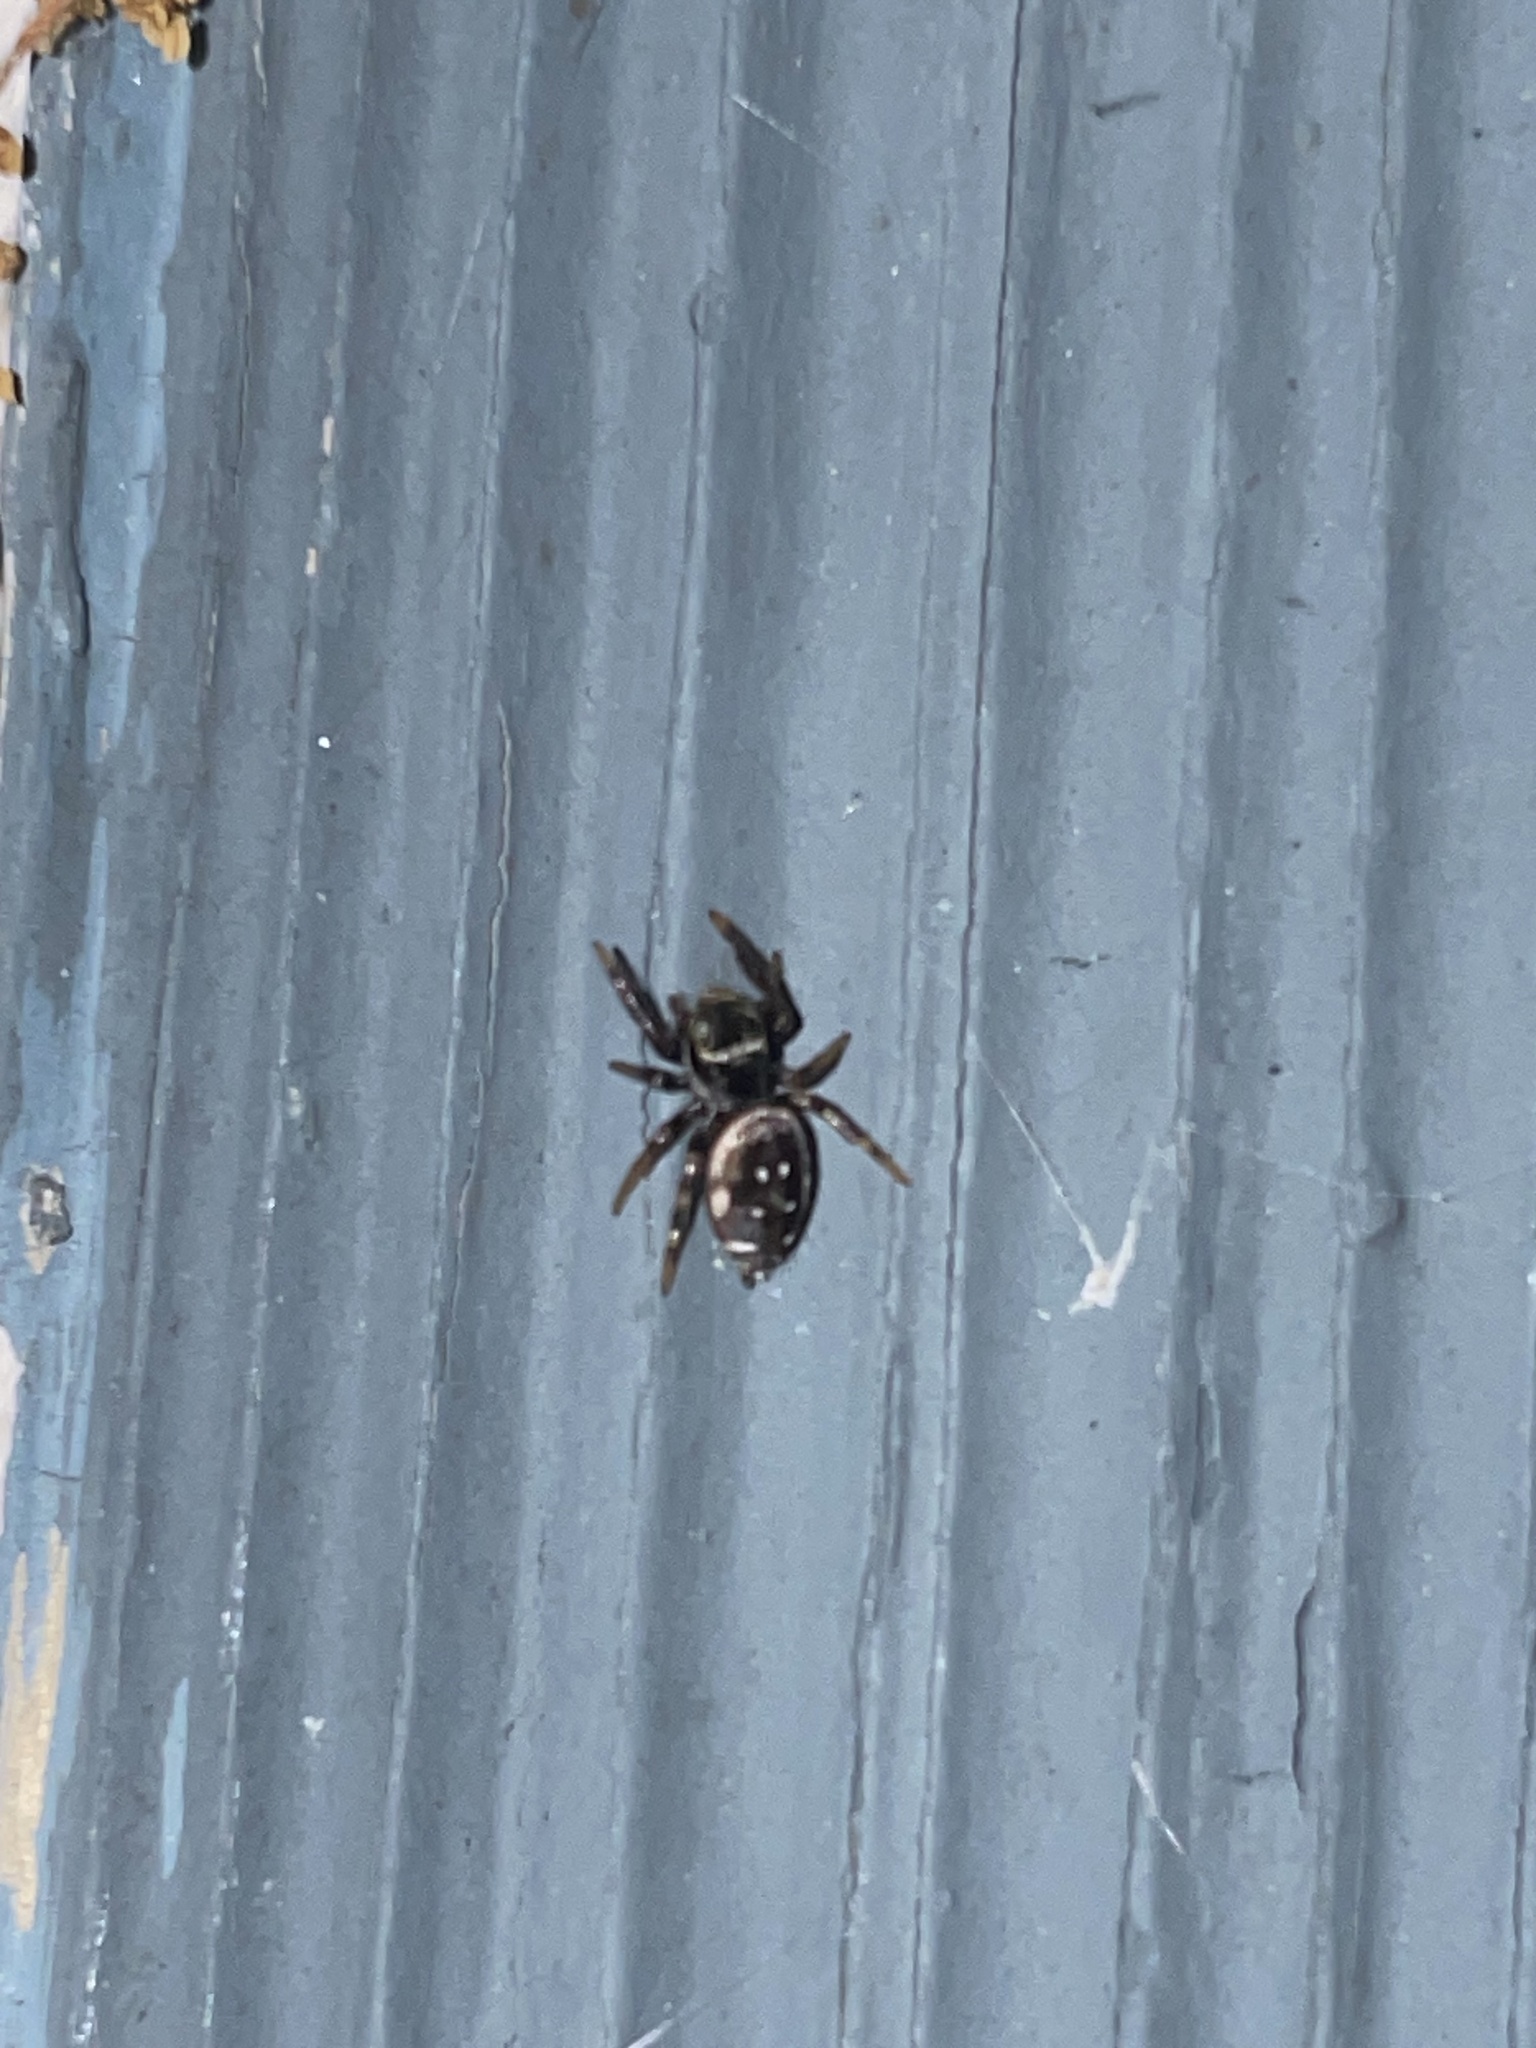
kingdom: Animalia
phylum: Arthropoda
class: Arachnida
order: Araneae
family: Salticidae
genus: Paraphidippus
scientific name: Paraphidippus aurantius
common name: Jumping spiders
